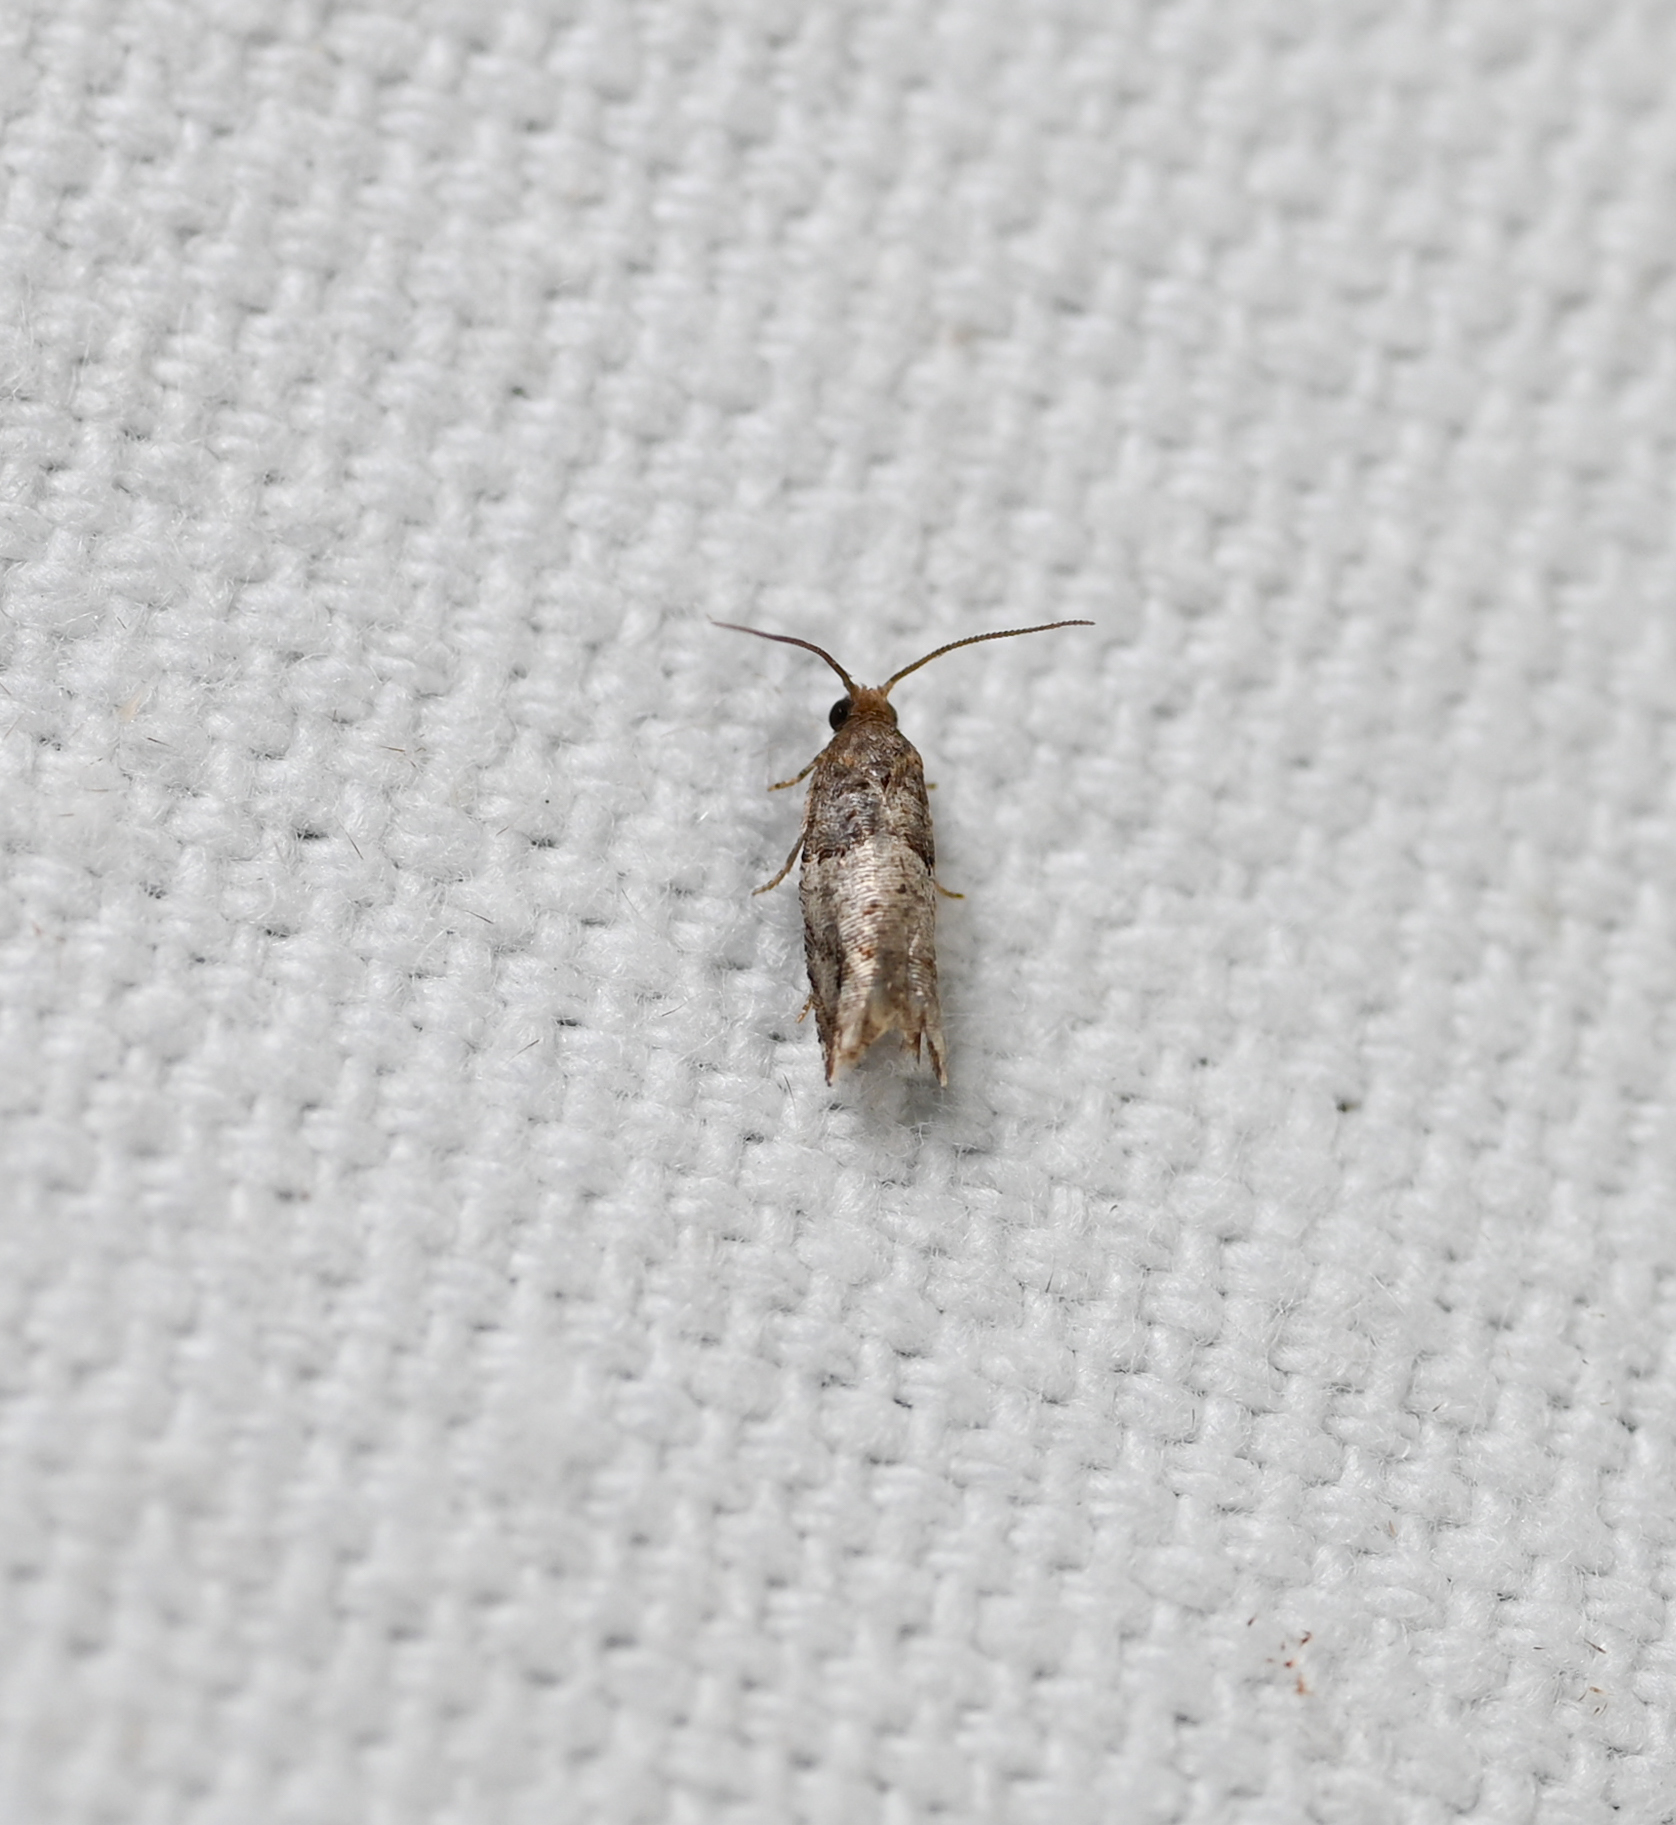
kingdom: Animalia
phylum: Arthropoda
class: Insecta
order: Lepidoptera
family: Tortricidae
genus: Rhopobota
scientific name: Rhopobota dietziana
